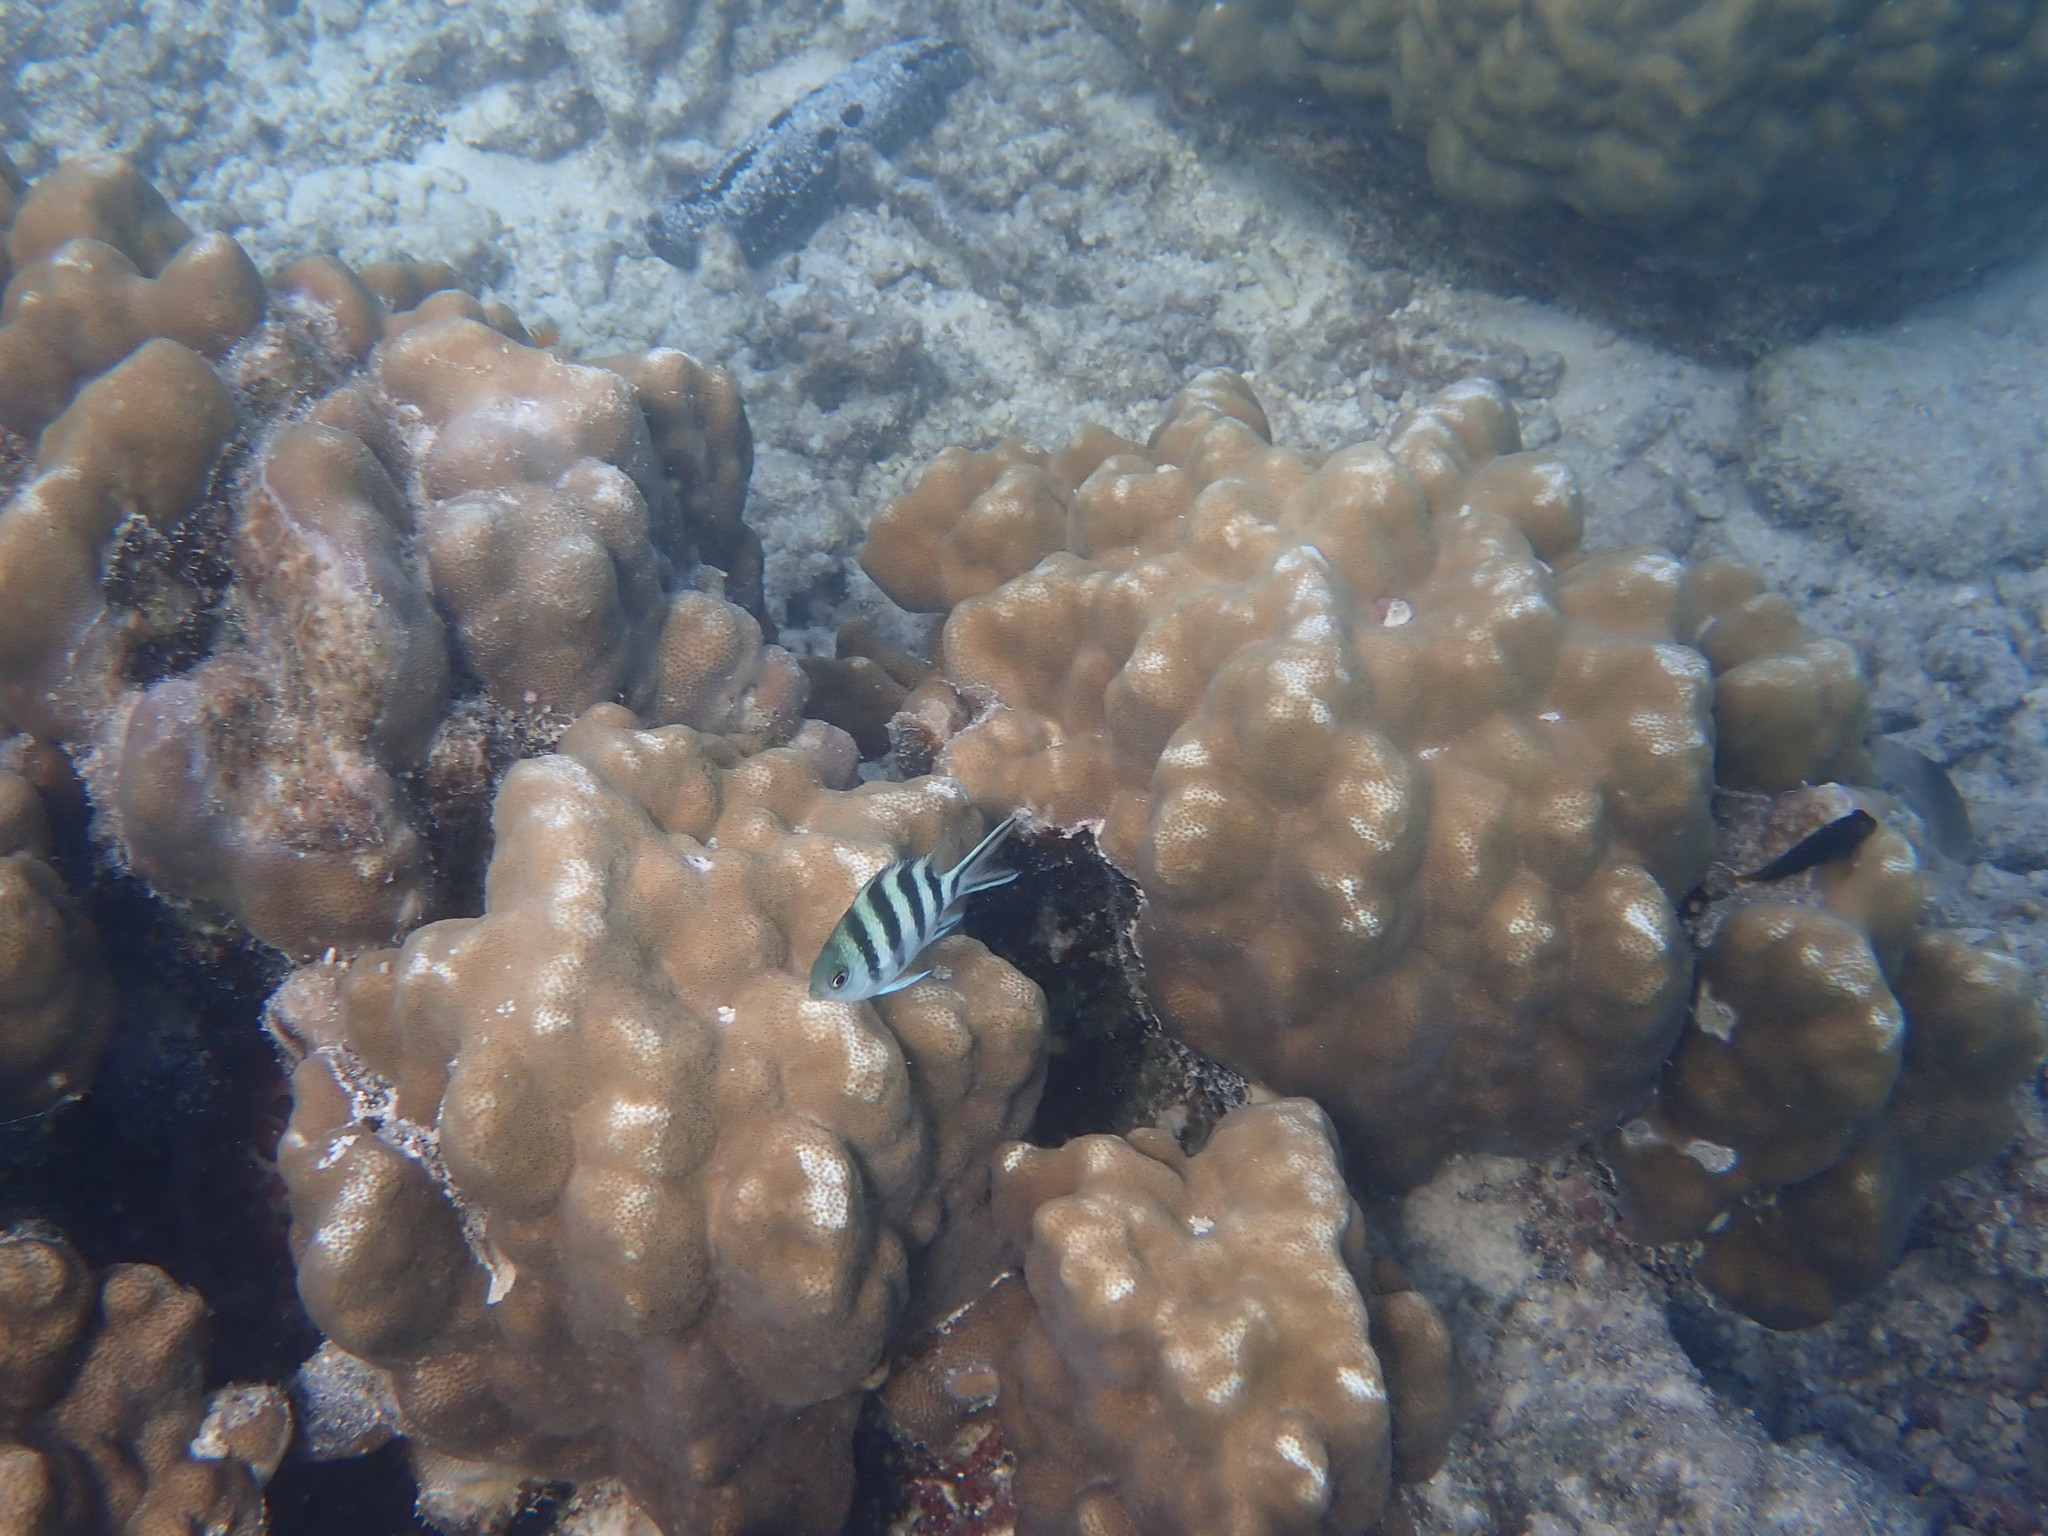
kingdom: Animalia
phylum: Chordata
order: Perciformes
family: Pomacentridae
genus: Abudefduf
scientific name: Abudefduf sexfasciatus
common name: Scissortail sergeant
